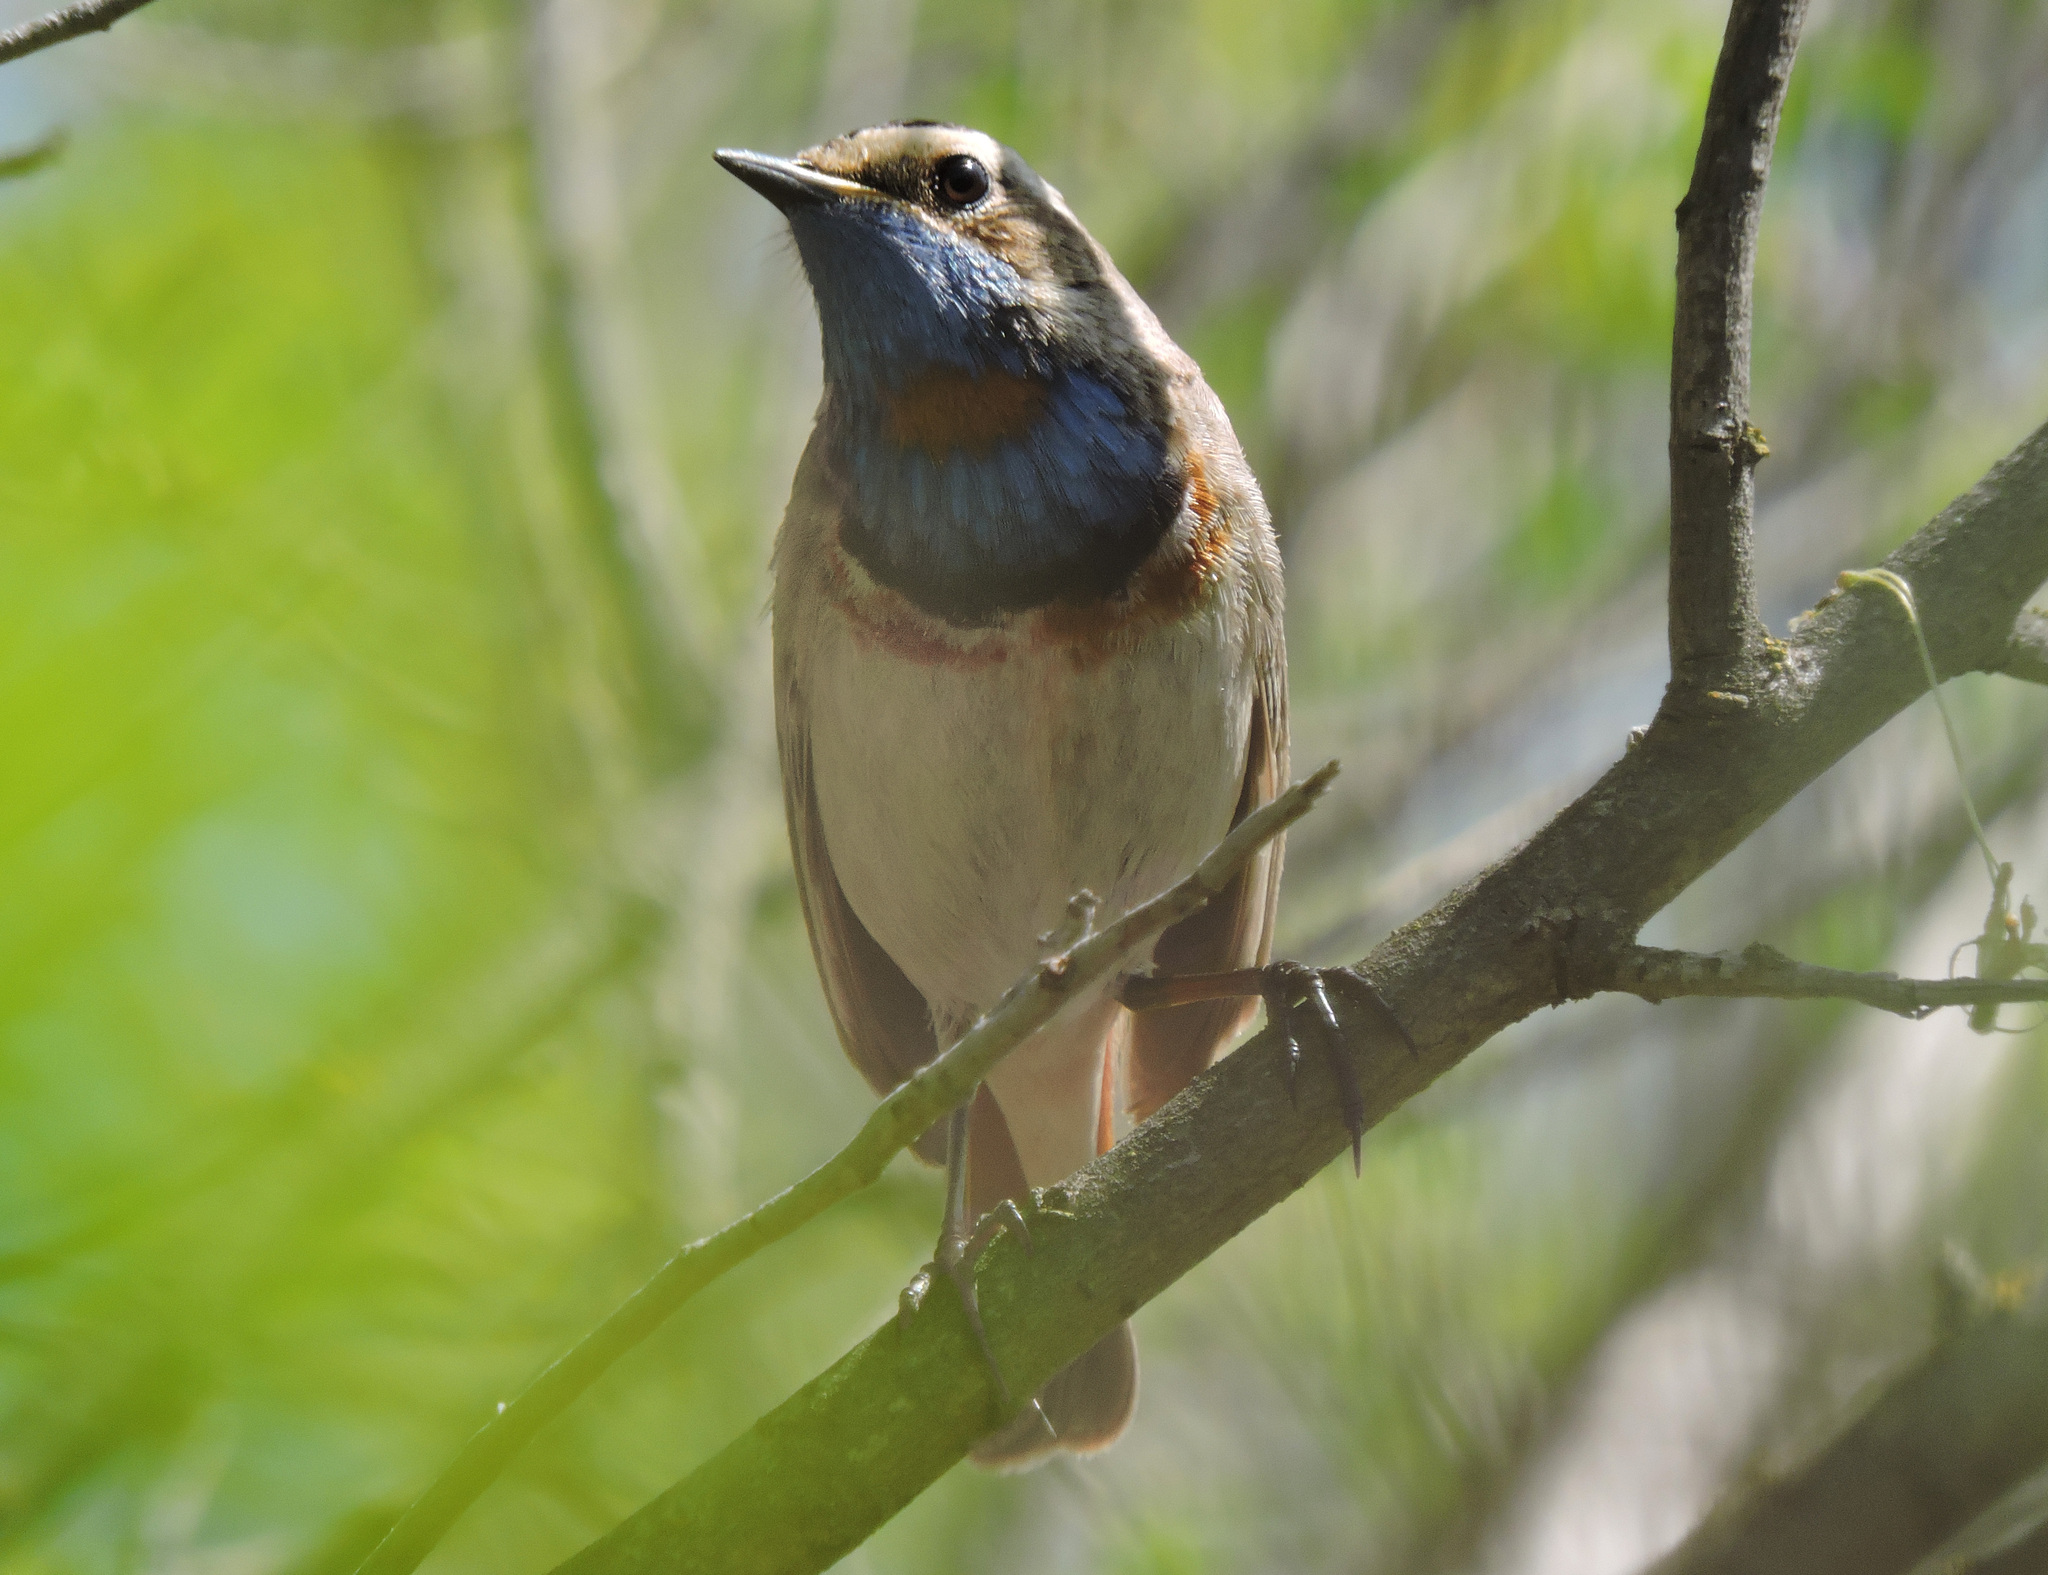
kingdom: Animalia
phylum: Chordata
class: Aves
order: Passeriformes
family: Muscicapidae
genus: Luscinia
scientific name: Luscinia svecica
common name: Bluethroat
